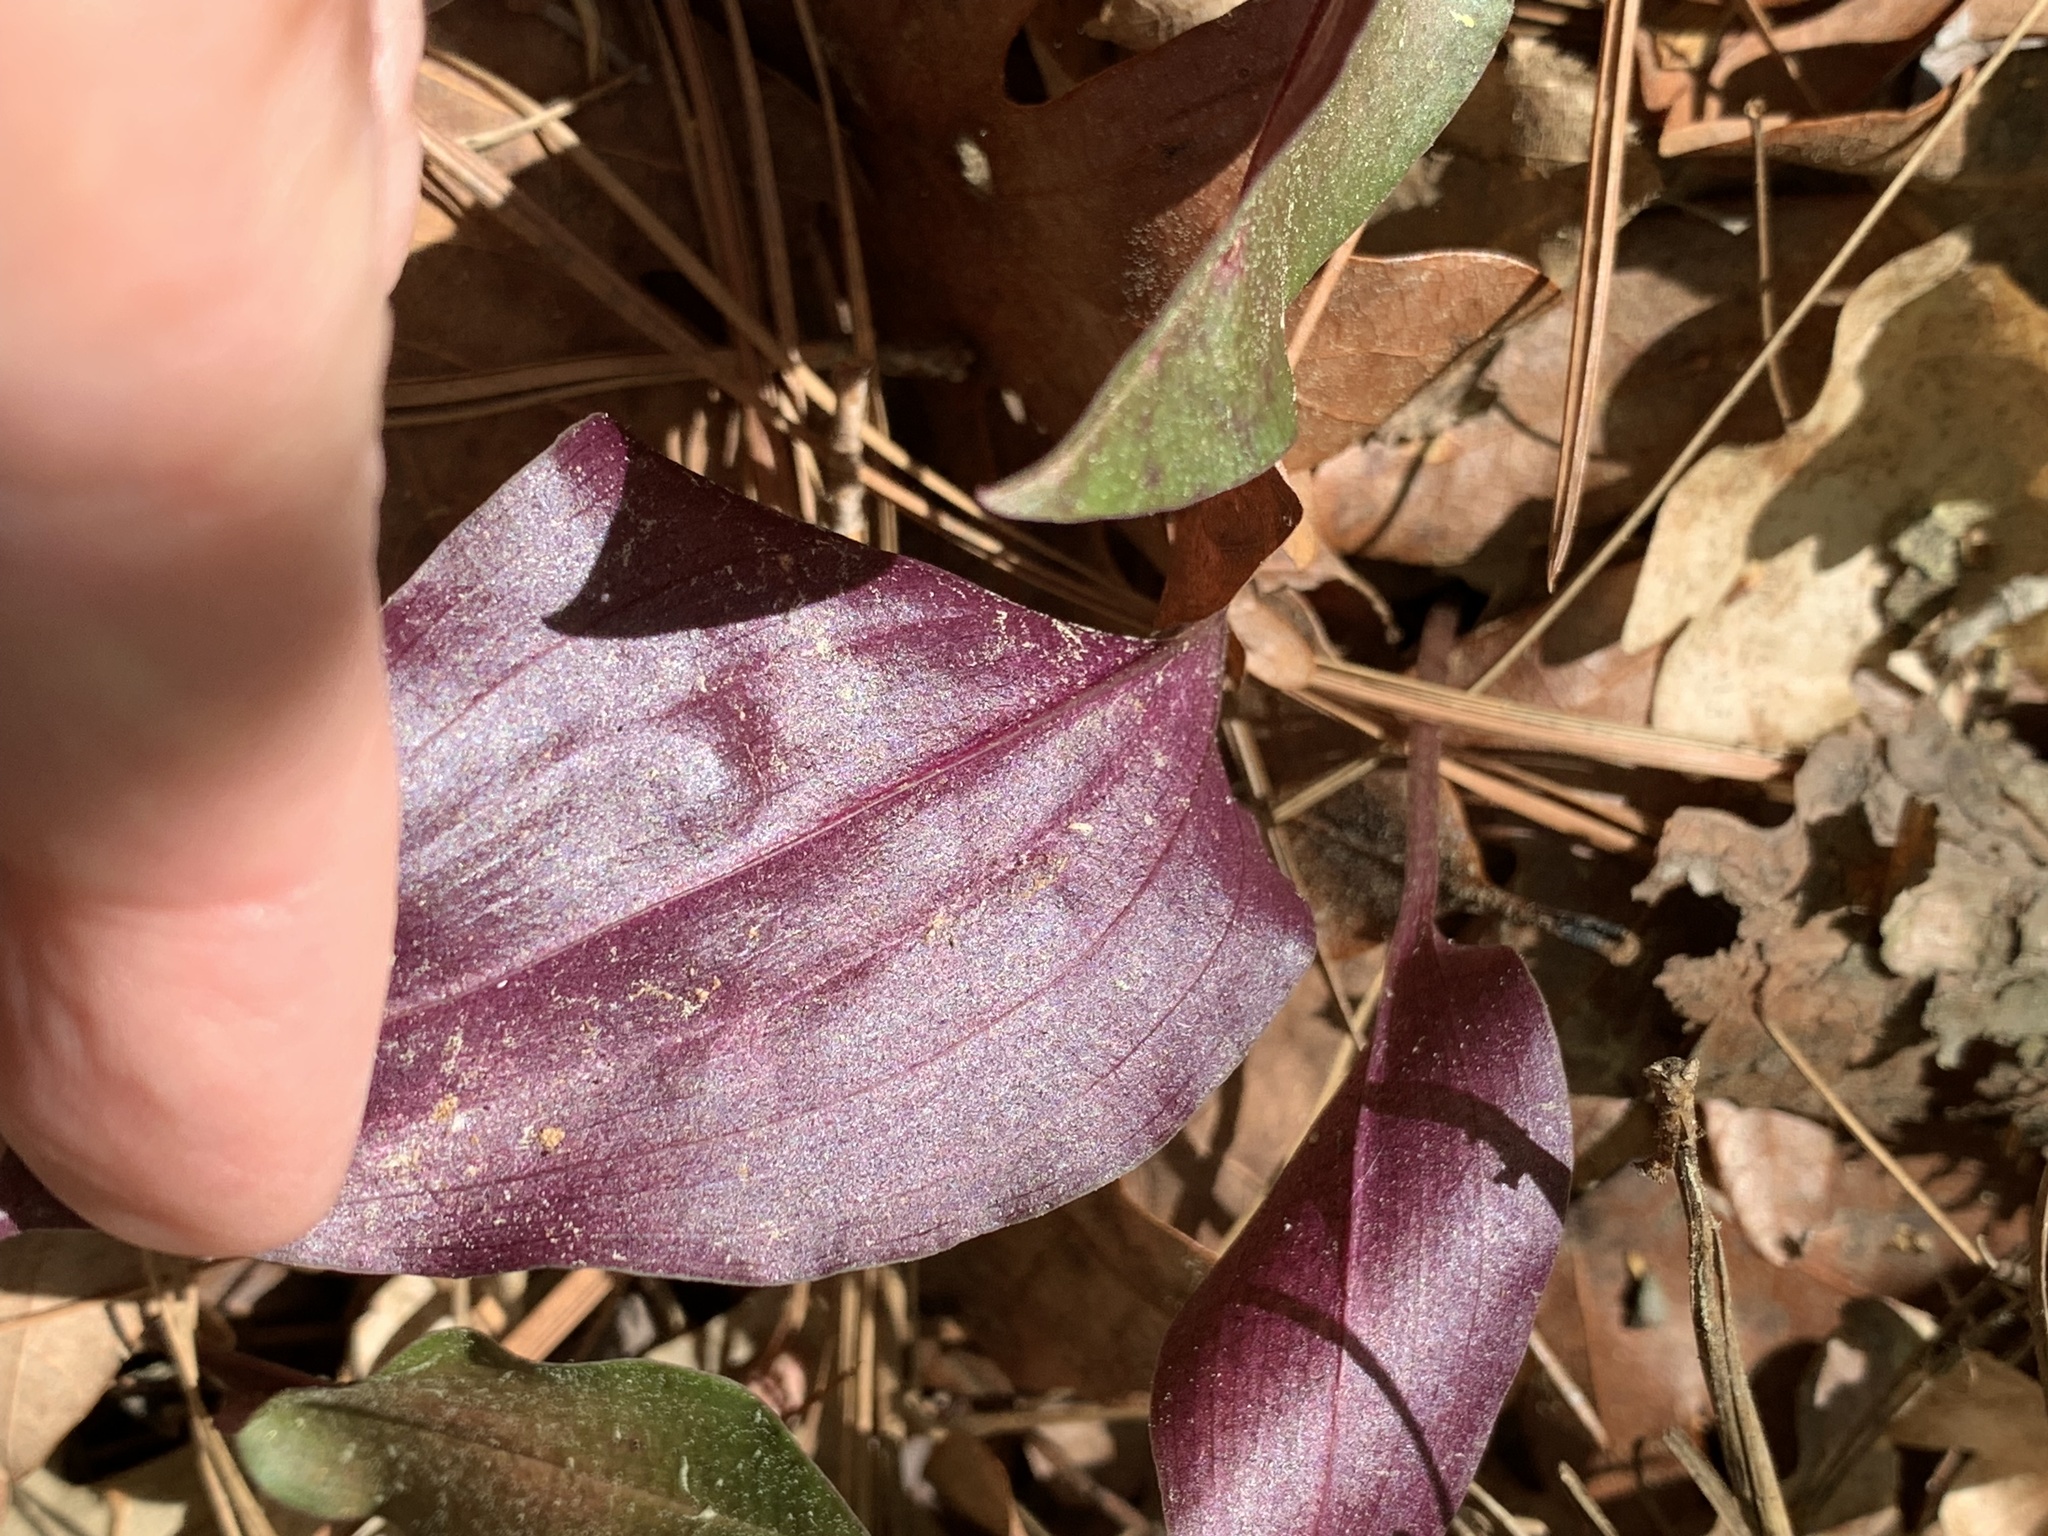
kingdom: Plantae
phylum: Tracheophyta
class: Liliopsida
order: Asparagales
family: Orchidaceae
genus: Tipularia
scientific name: Tipularia discolor
